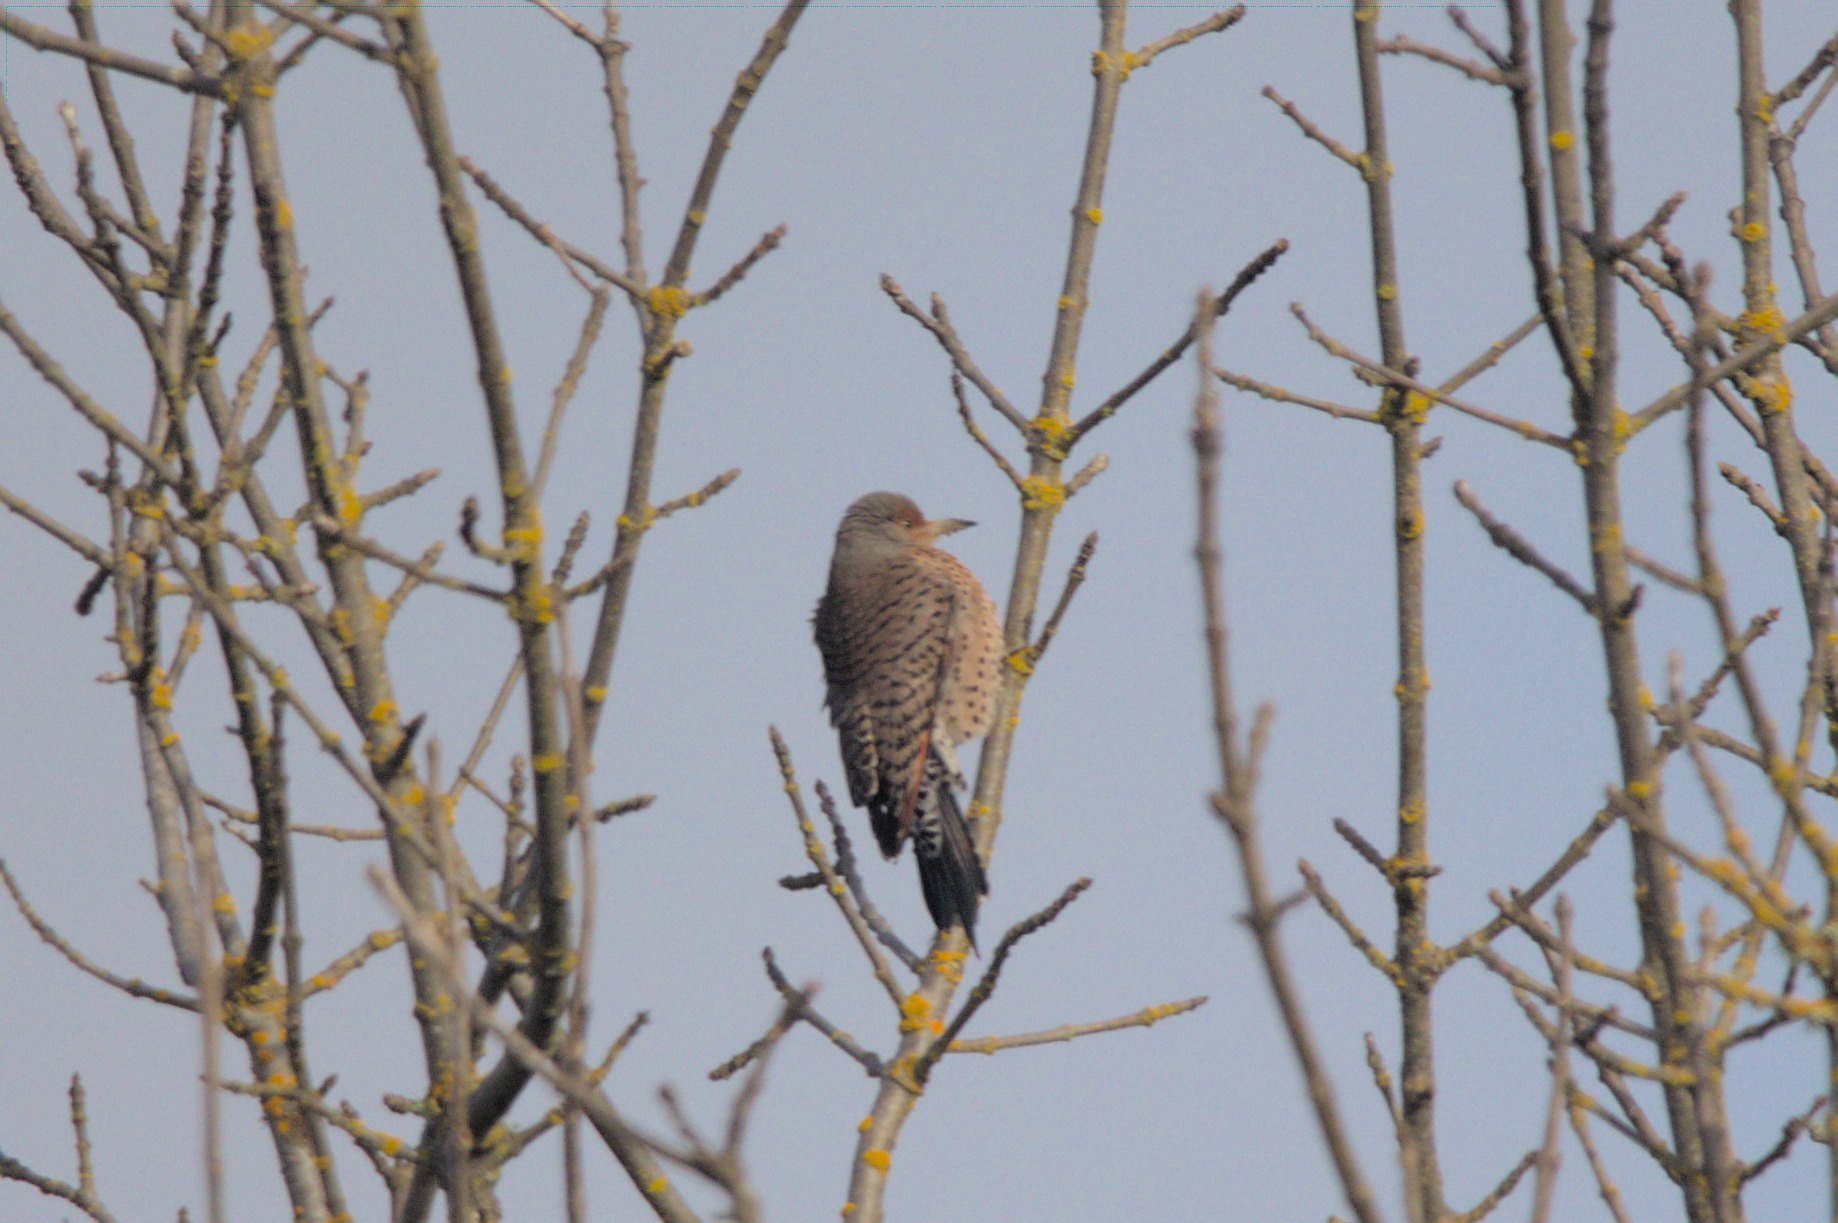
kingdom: Animalia
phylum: Chordata
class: Aves
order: Piciformes
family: Picidae
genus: Colaptes
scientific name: Colaptes auratus
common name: Northern flicker
